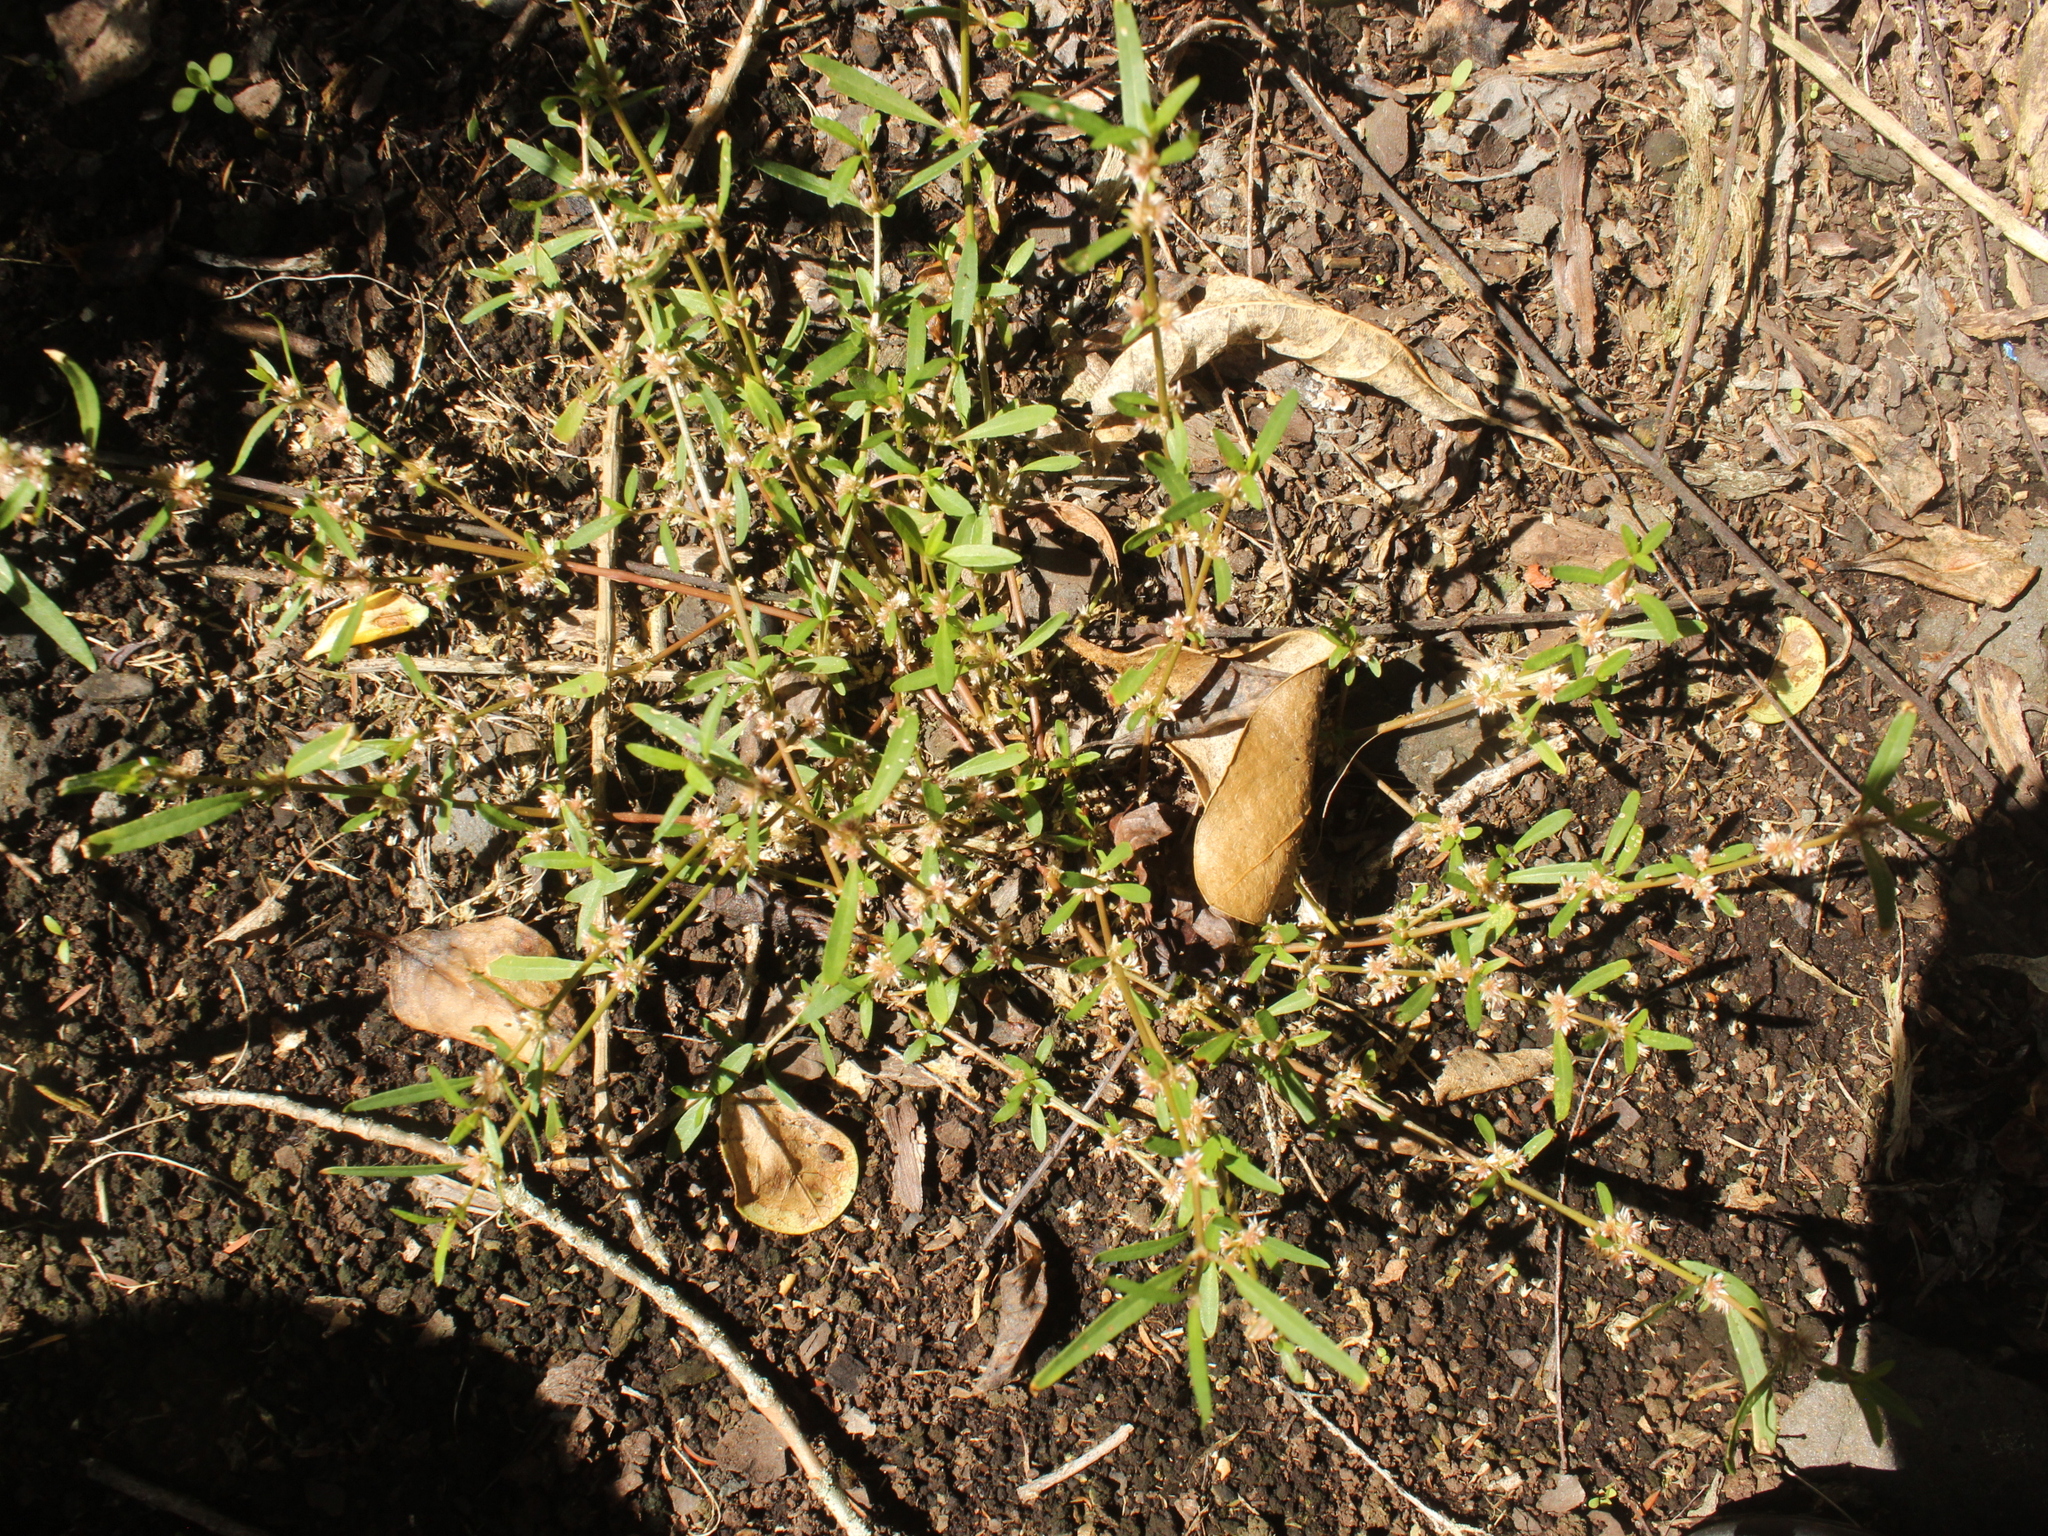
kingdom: Plantae
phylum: Tracheophyta
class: Magnoliopsida
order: Caryophyllales
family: Amaranthaceae
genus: Alternanthera
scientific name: Alternanthera nahui
